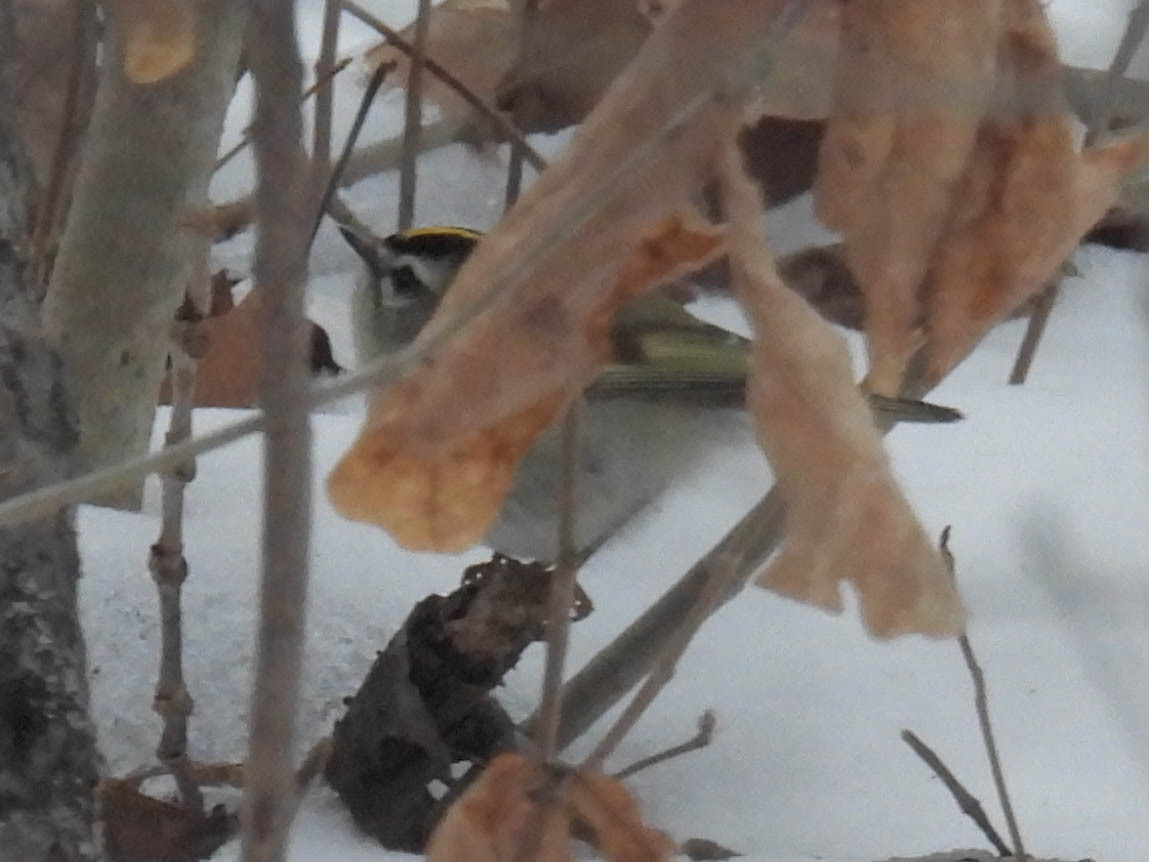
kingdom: Animalia
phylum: Chordata
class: Aves
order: Passeriformes
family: Regulidae
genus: Regulus
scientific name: Regulus satrapa
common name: Golden-crowned kinglet
